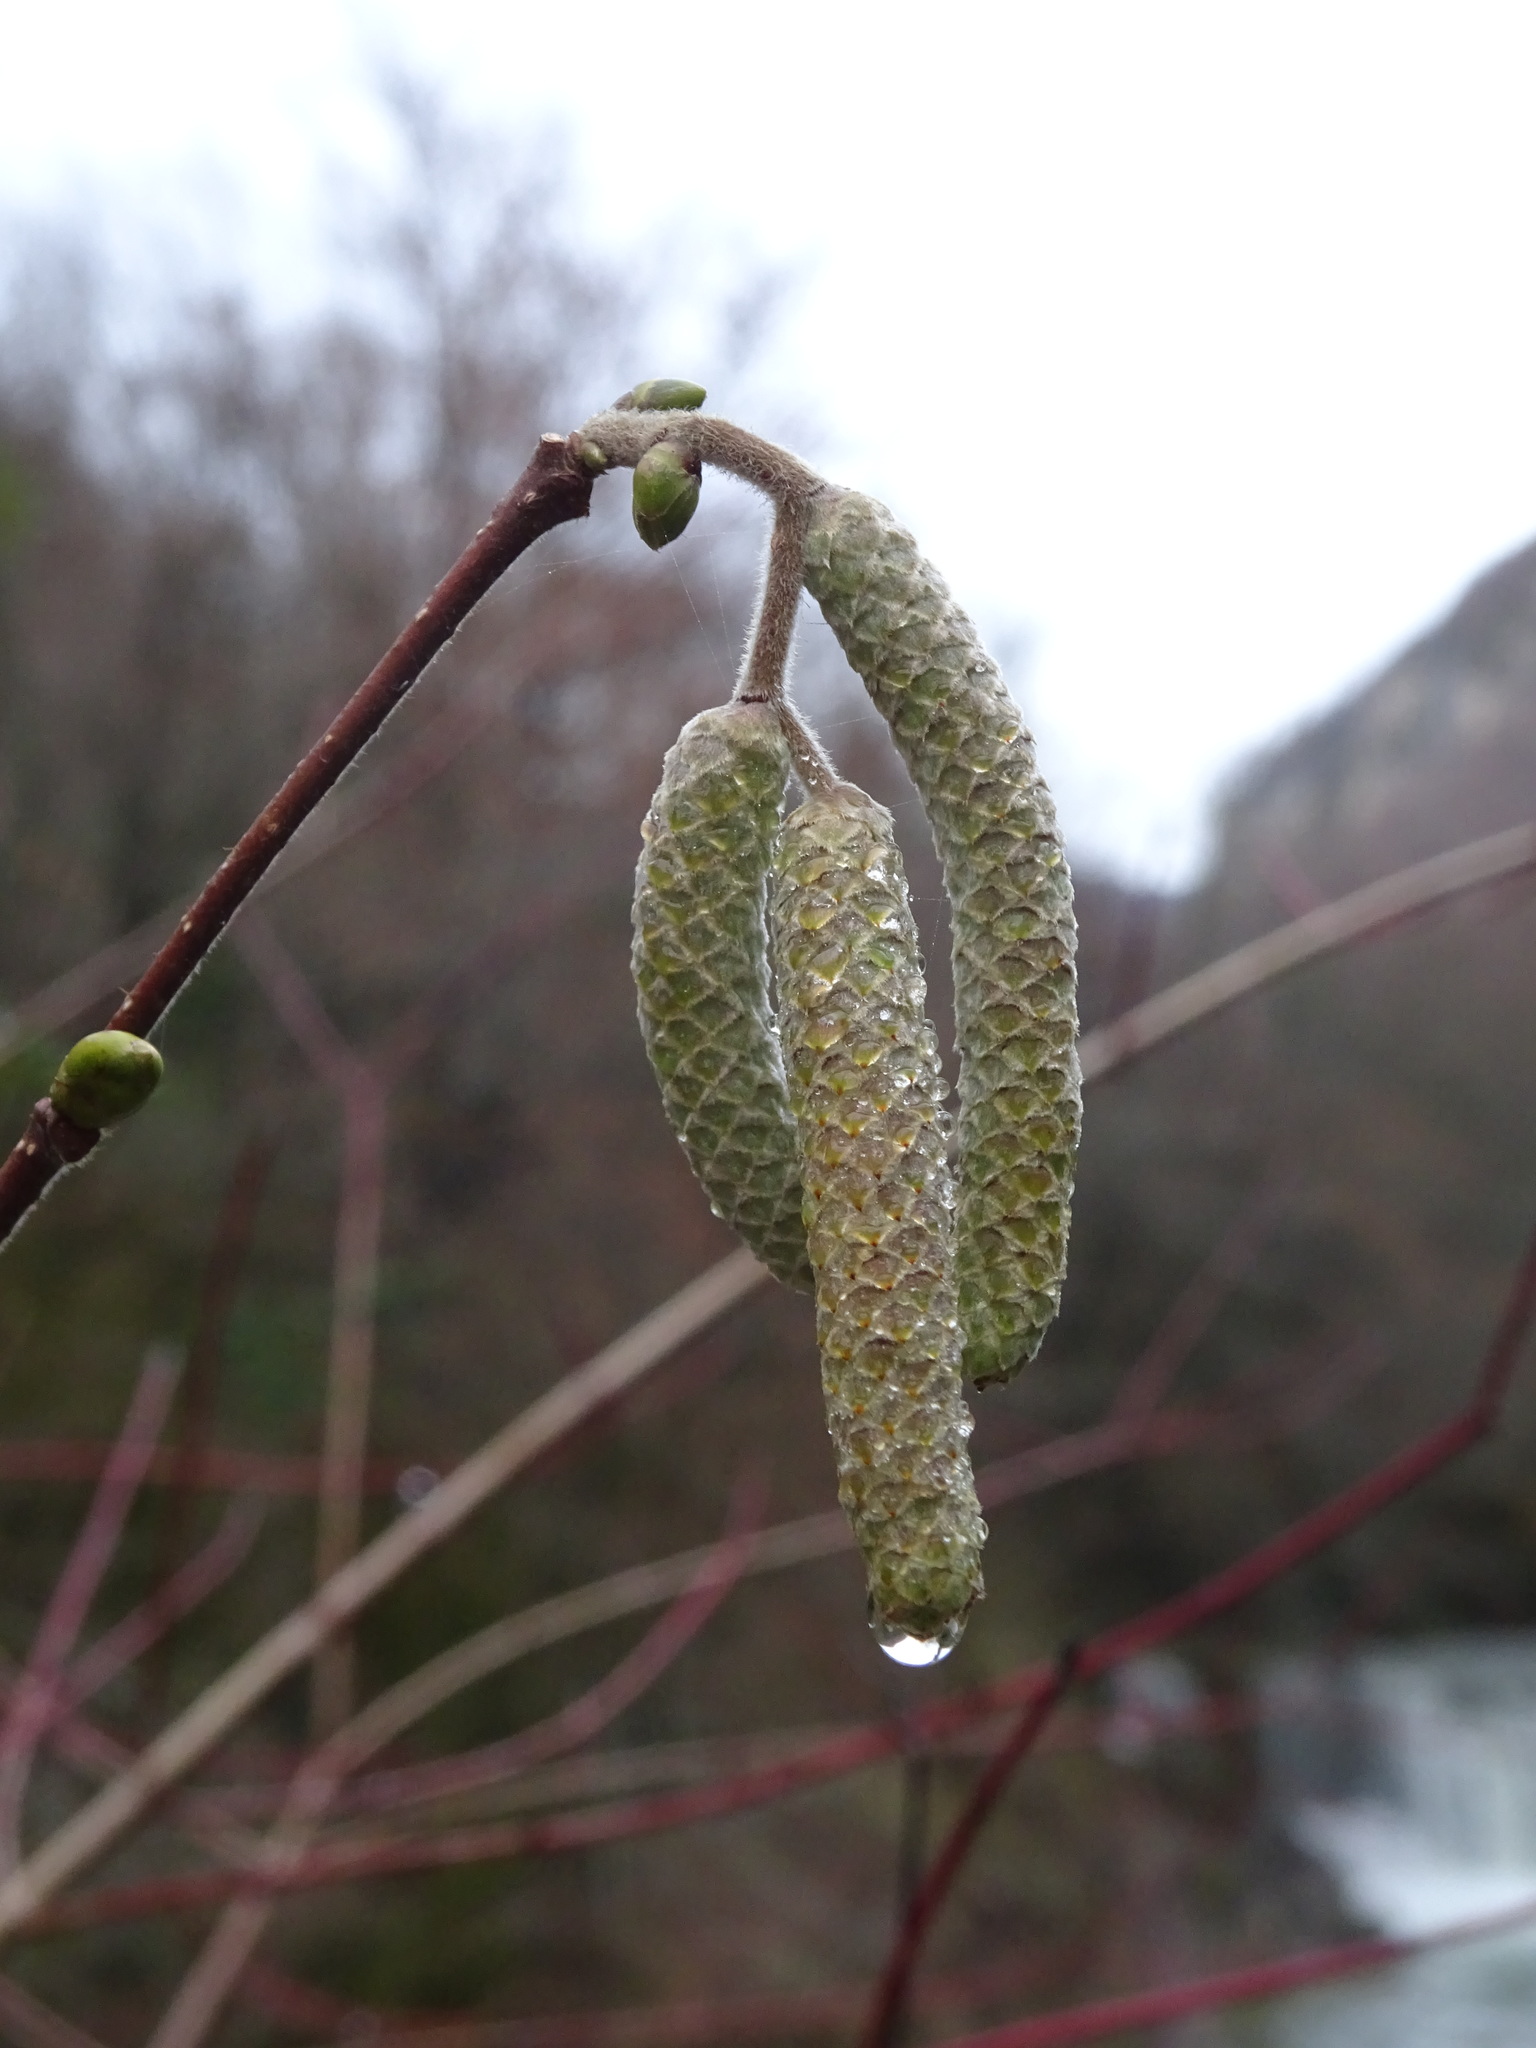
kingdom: Plantae
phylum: Tracheophyta
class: Magnoliopsida
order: Fagales
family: Betulaceae
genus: Corylus
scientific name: Corylus avellana
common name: European hazel
